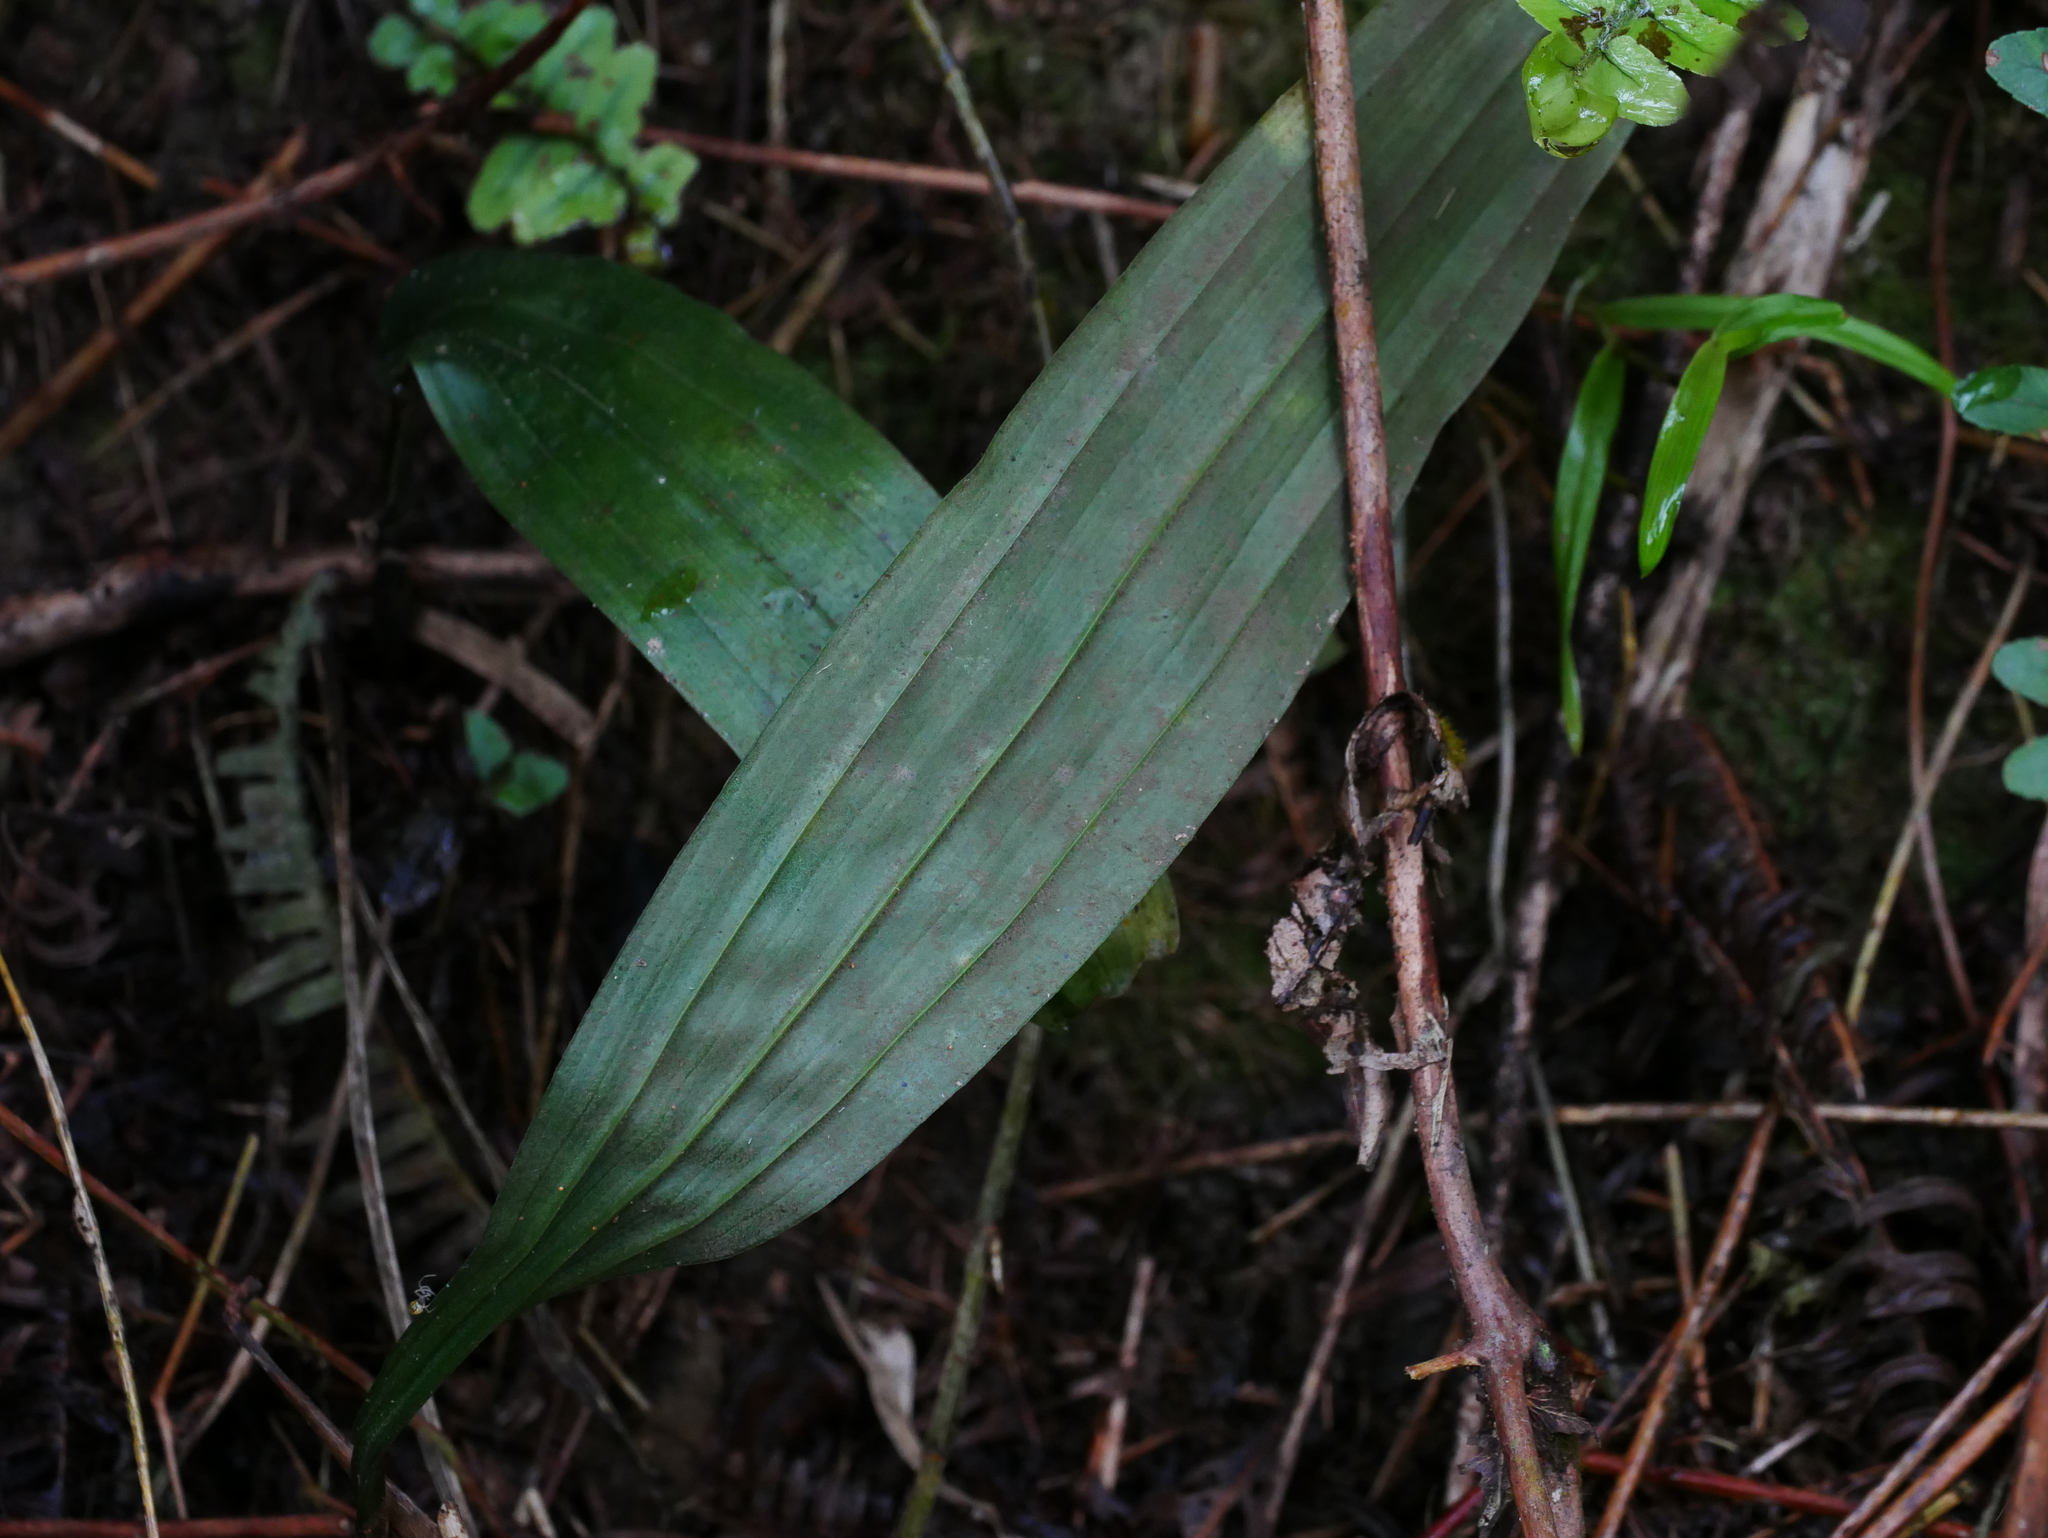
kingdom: Plantae
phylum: Tracheophyta
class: Liliopsida
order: Asparagales
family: Orchidaceae
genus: Tainia
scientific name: Tainia dunnii
